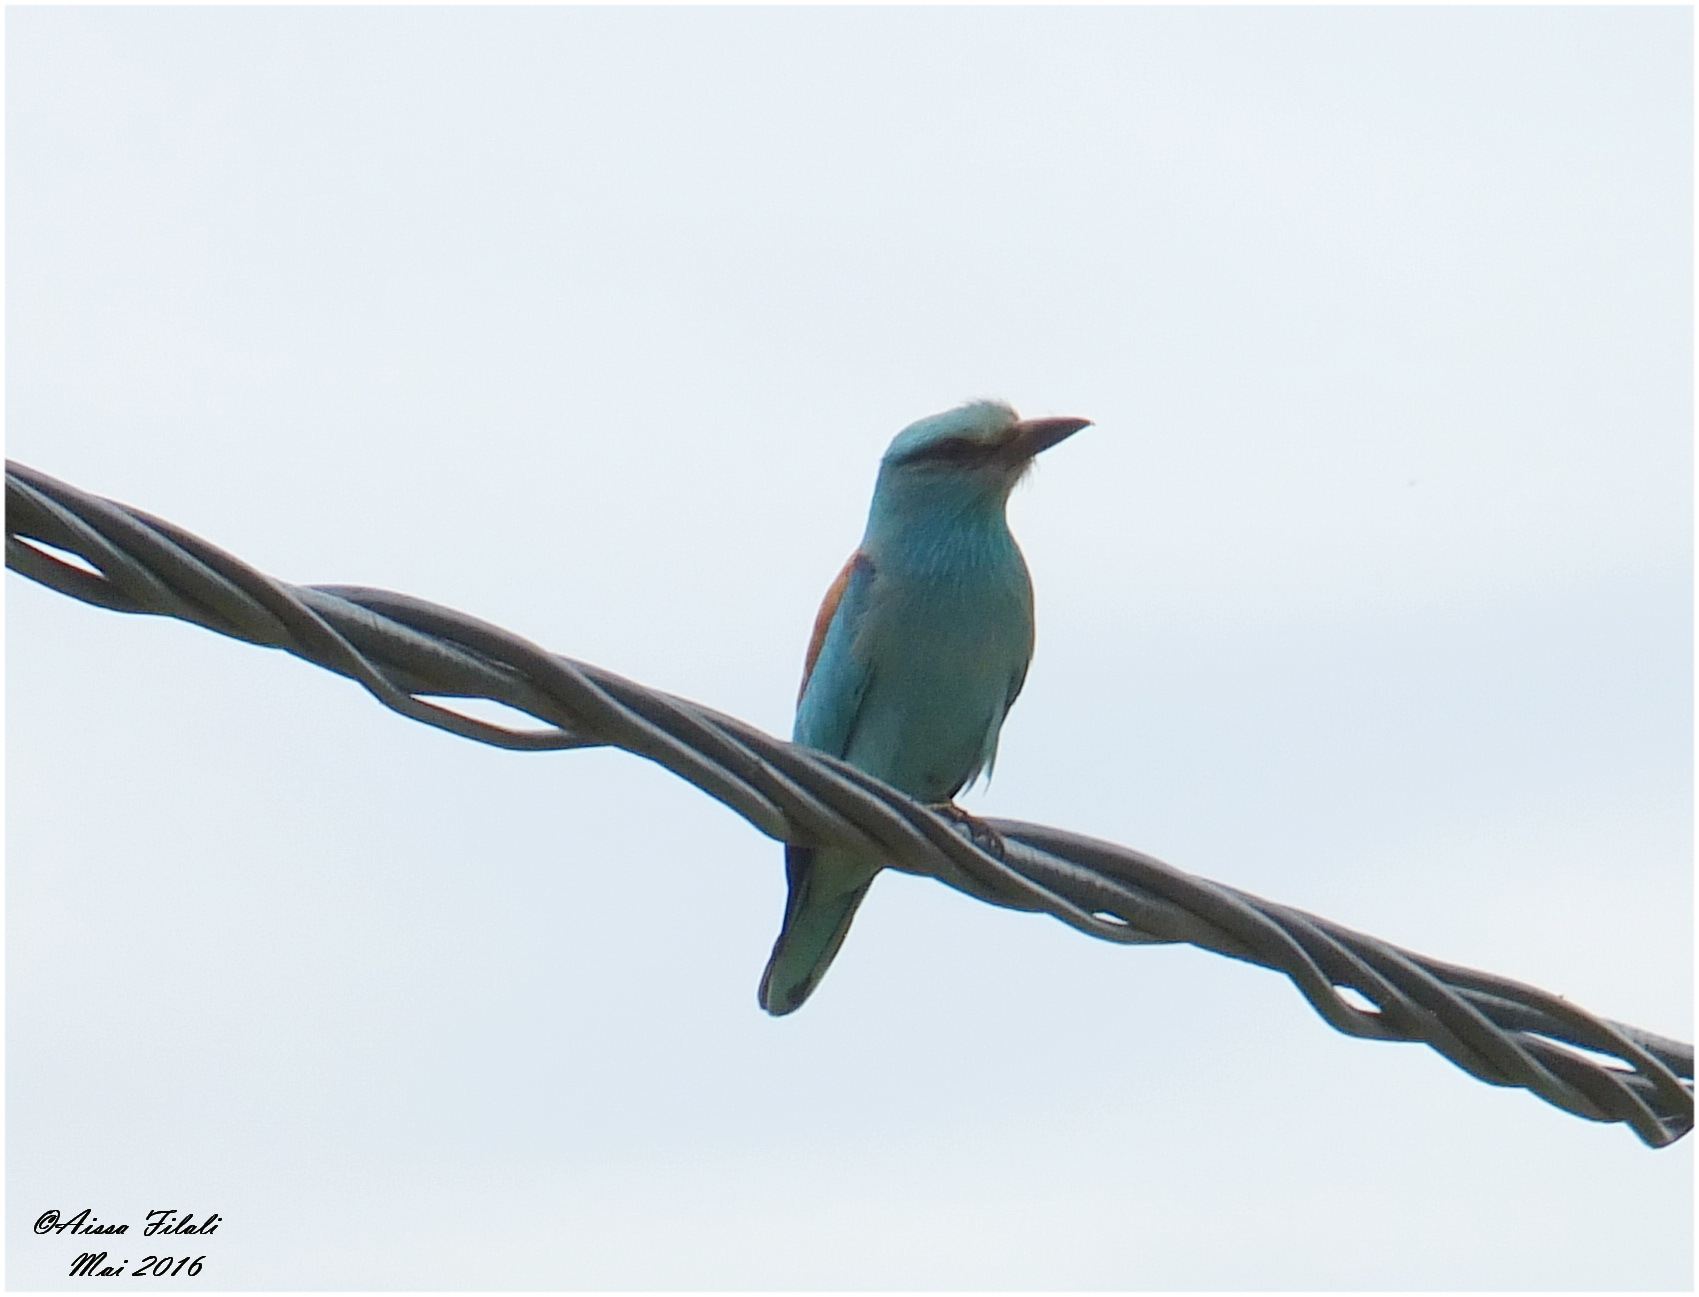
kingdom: Animalia
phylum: Chordata
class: Aves
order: Coraciiformes
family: Coraciidae
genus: Coracias
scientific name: Coracias garrulus
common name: European roller
